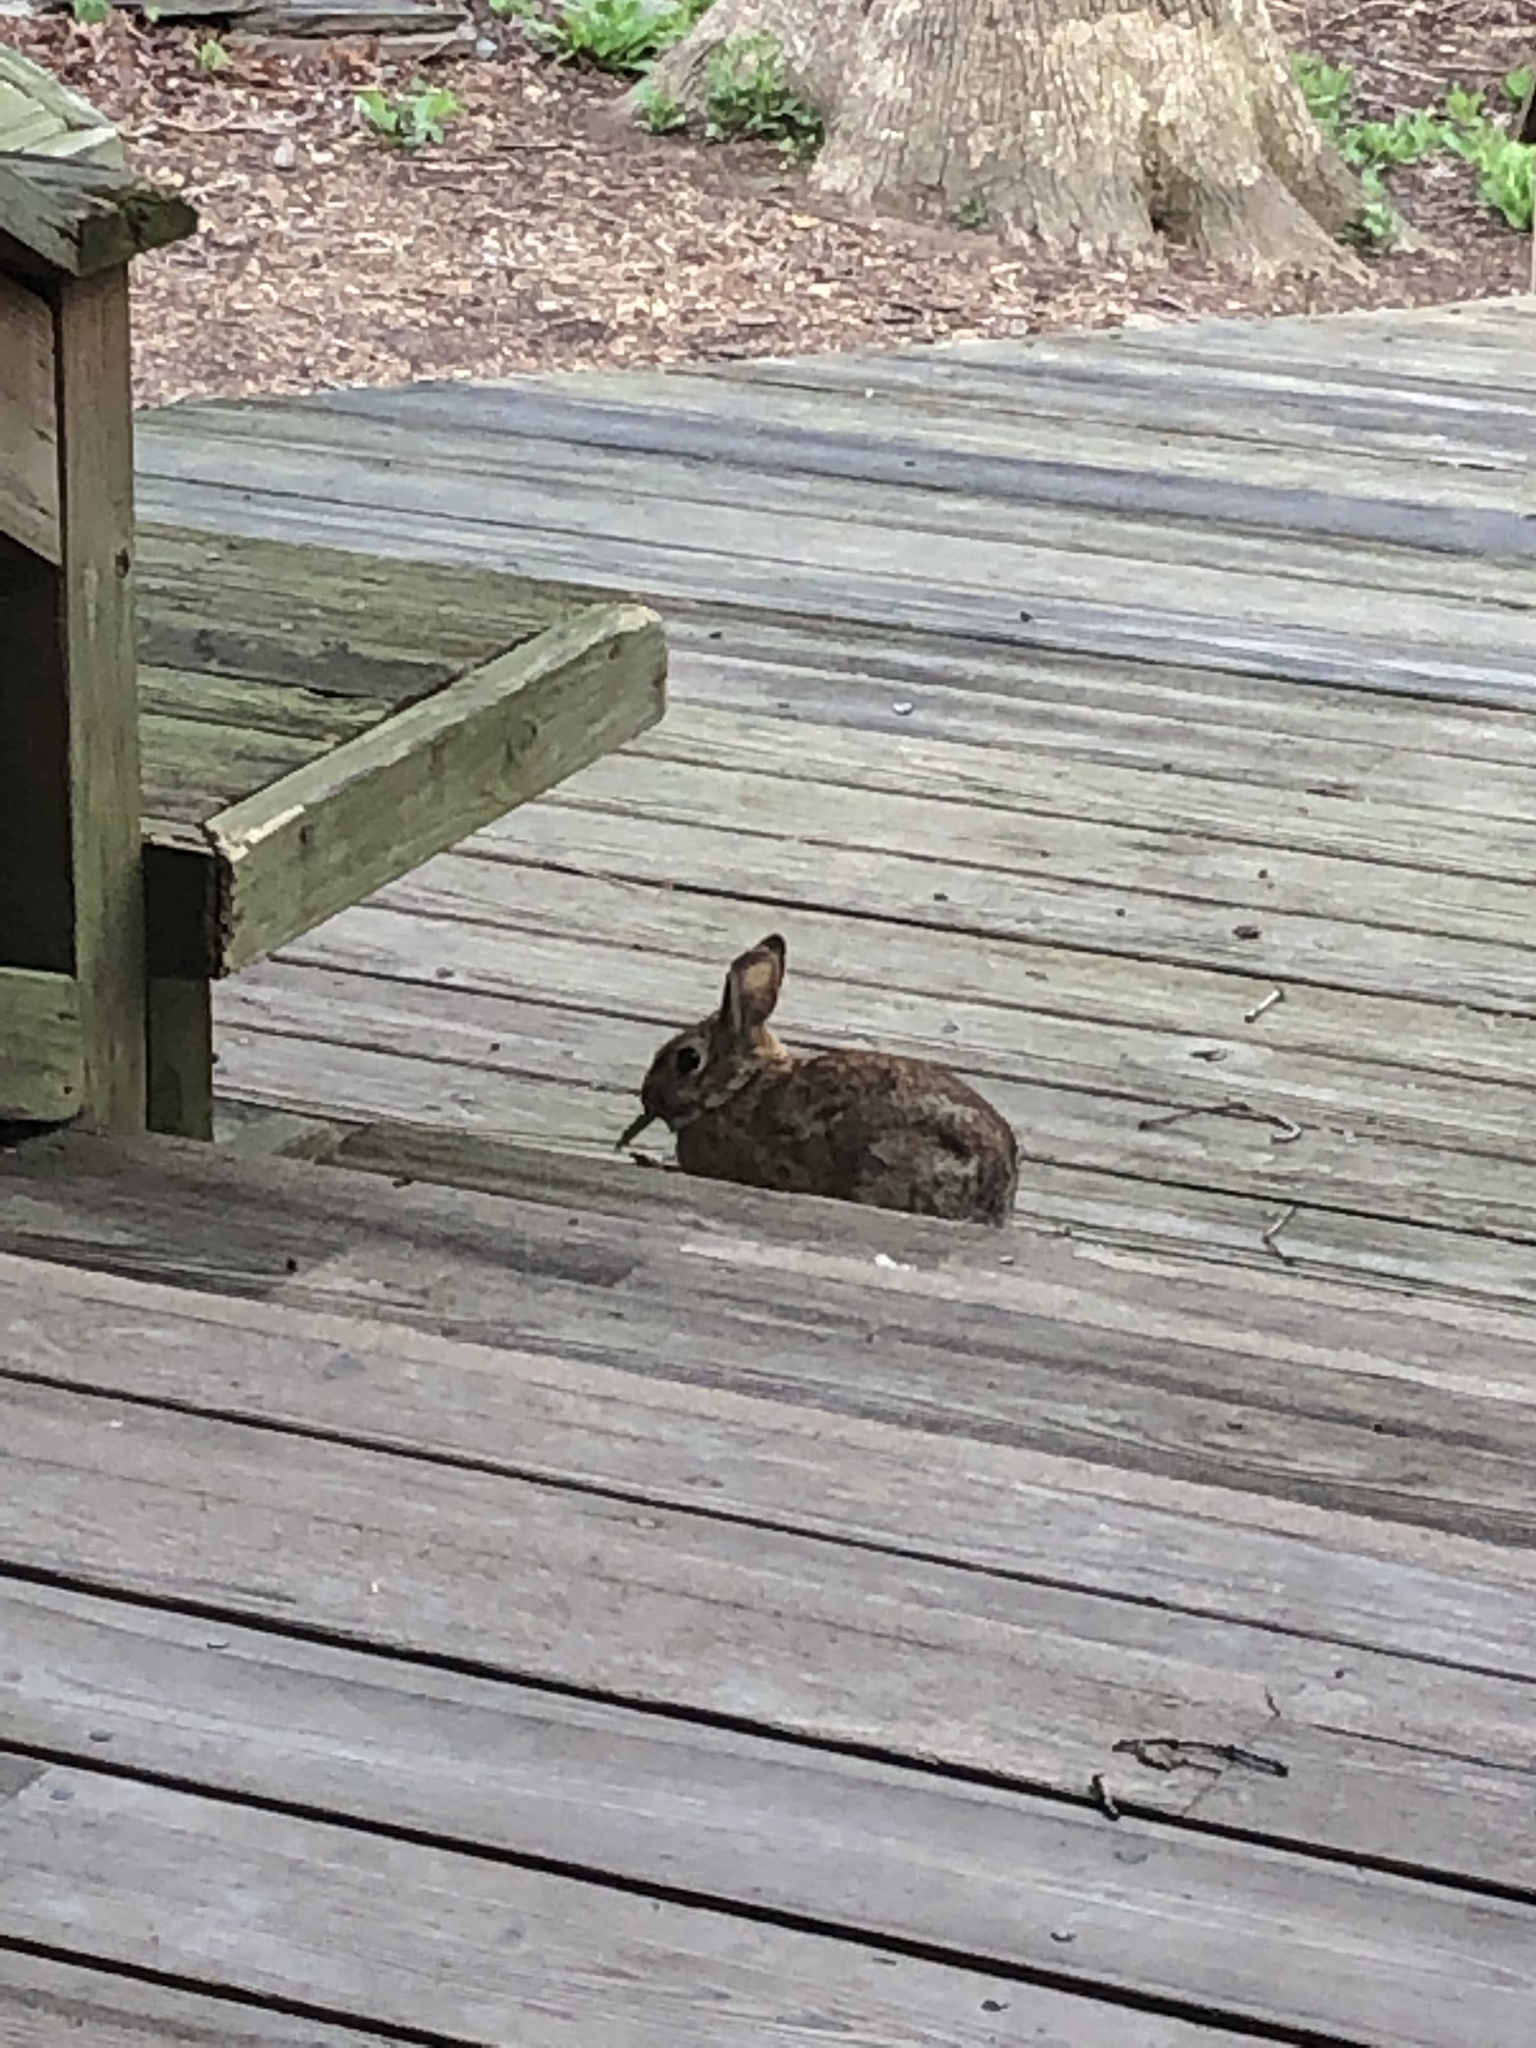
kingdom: Animalia
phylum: Chordata
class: Mammalia
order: Lagomorpha
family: Leporidae
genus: Sylvilagus
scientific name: Sylvilagus floridanus
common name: Eastern cottontail
